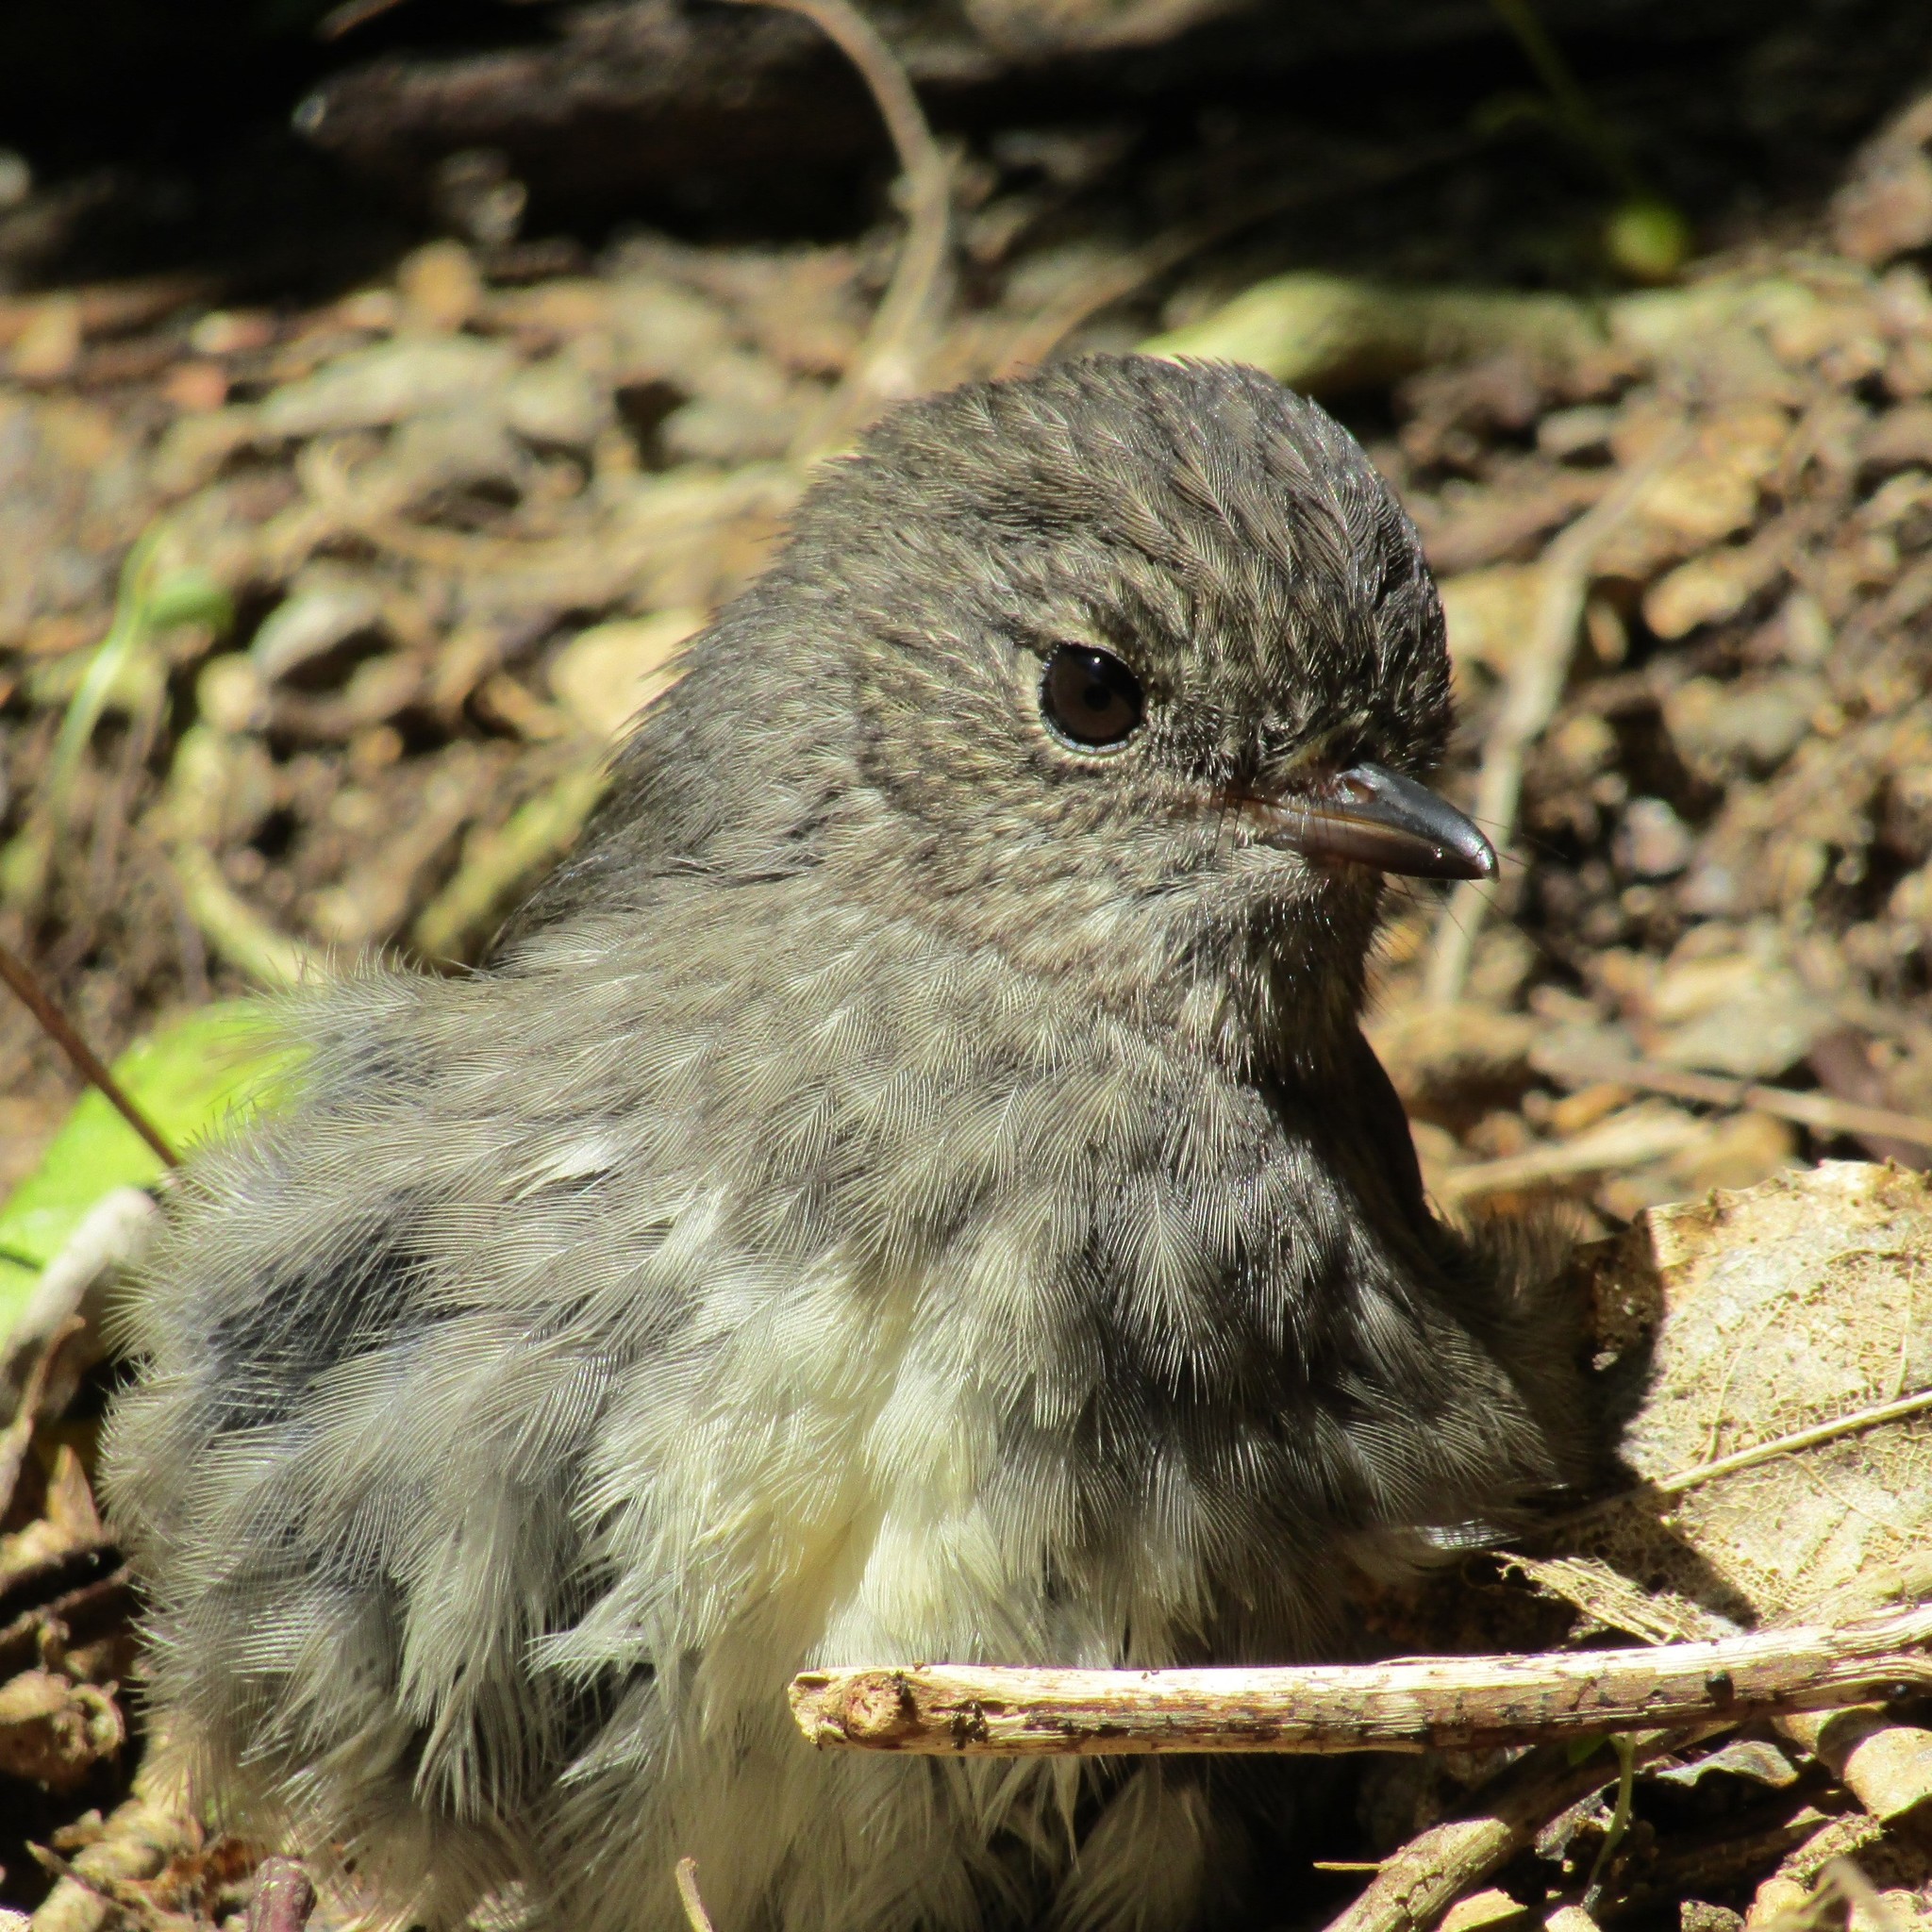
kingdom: Animalia
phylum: Chordata
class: Aves
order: Passeriformes
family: Petroicidae
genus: Petroica
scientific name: Petroica australis
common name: New zealand robin
